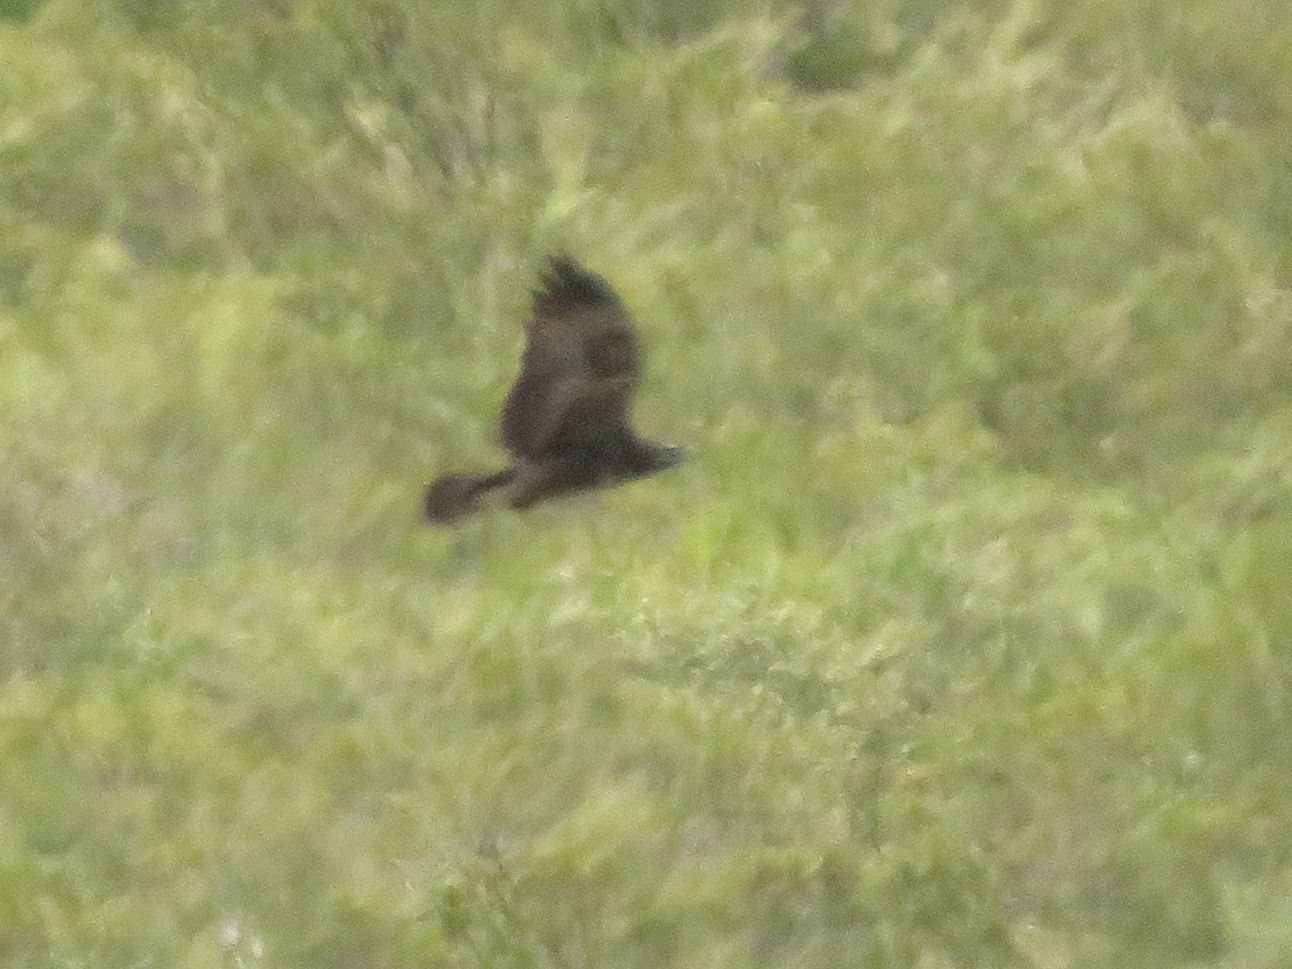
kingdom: Animalia
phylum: Chordata
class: Aves
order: Accipitriformes
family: Accipitridae
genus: Geranoaetus
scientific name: Geranoaetus melanoleucus
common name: Black-chested buzzard-eagle
